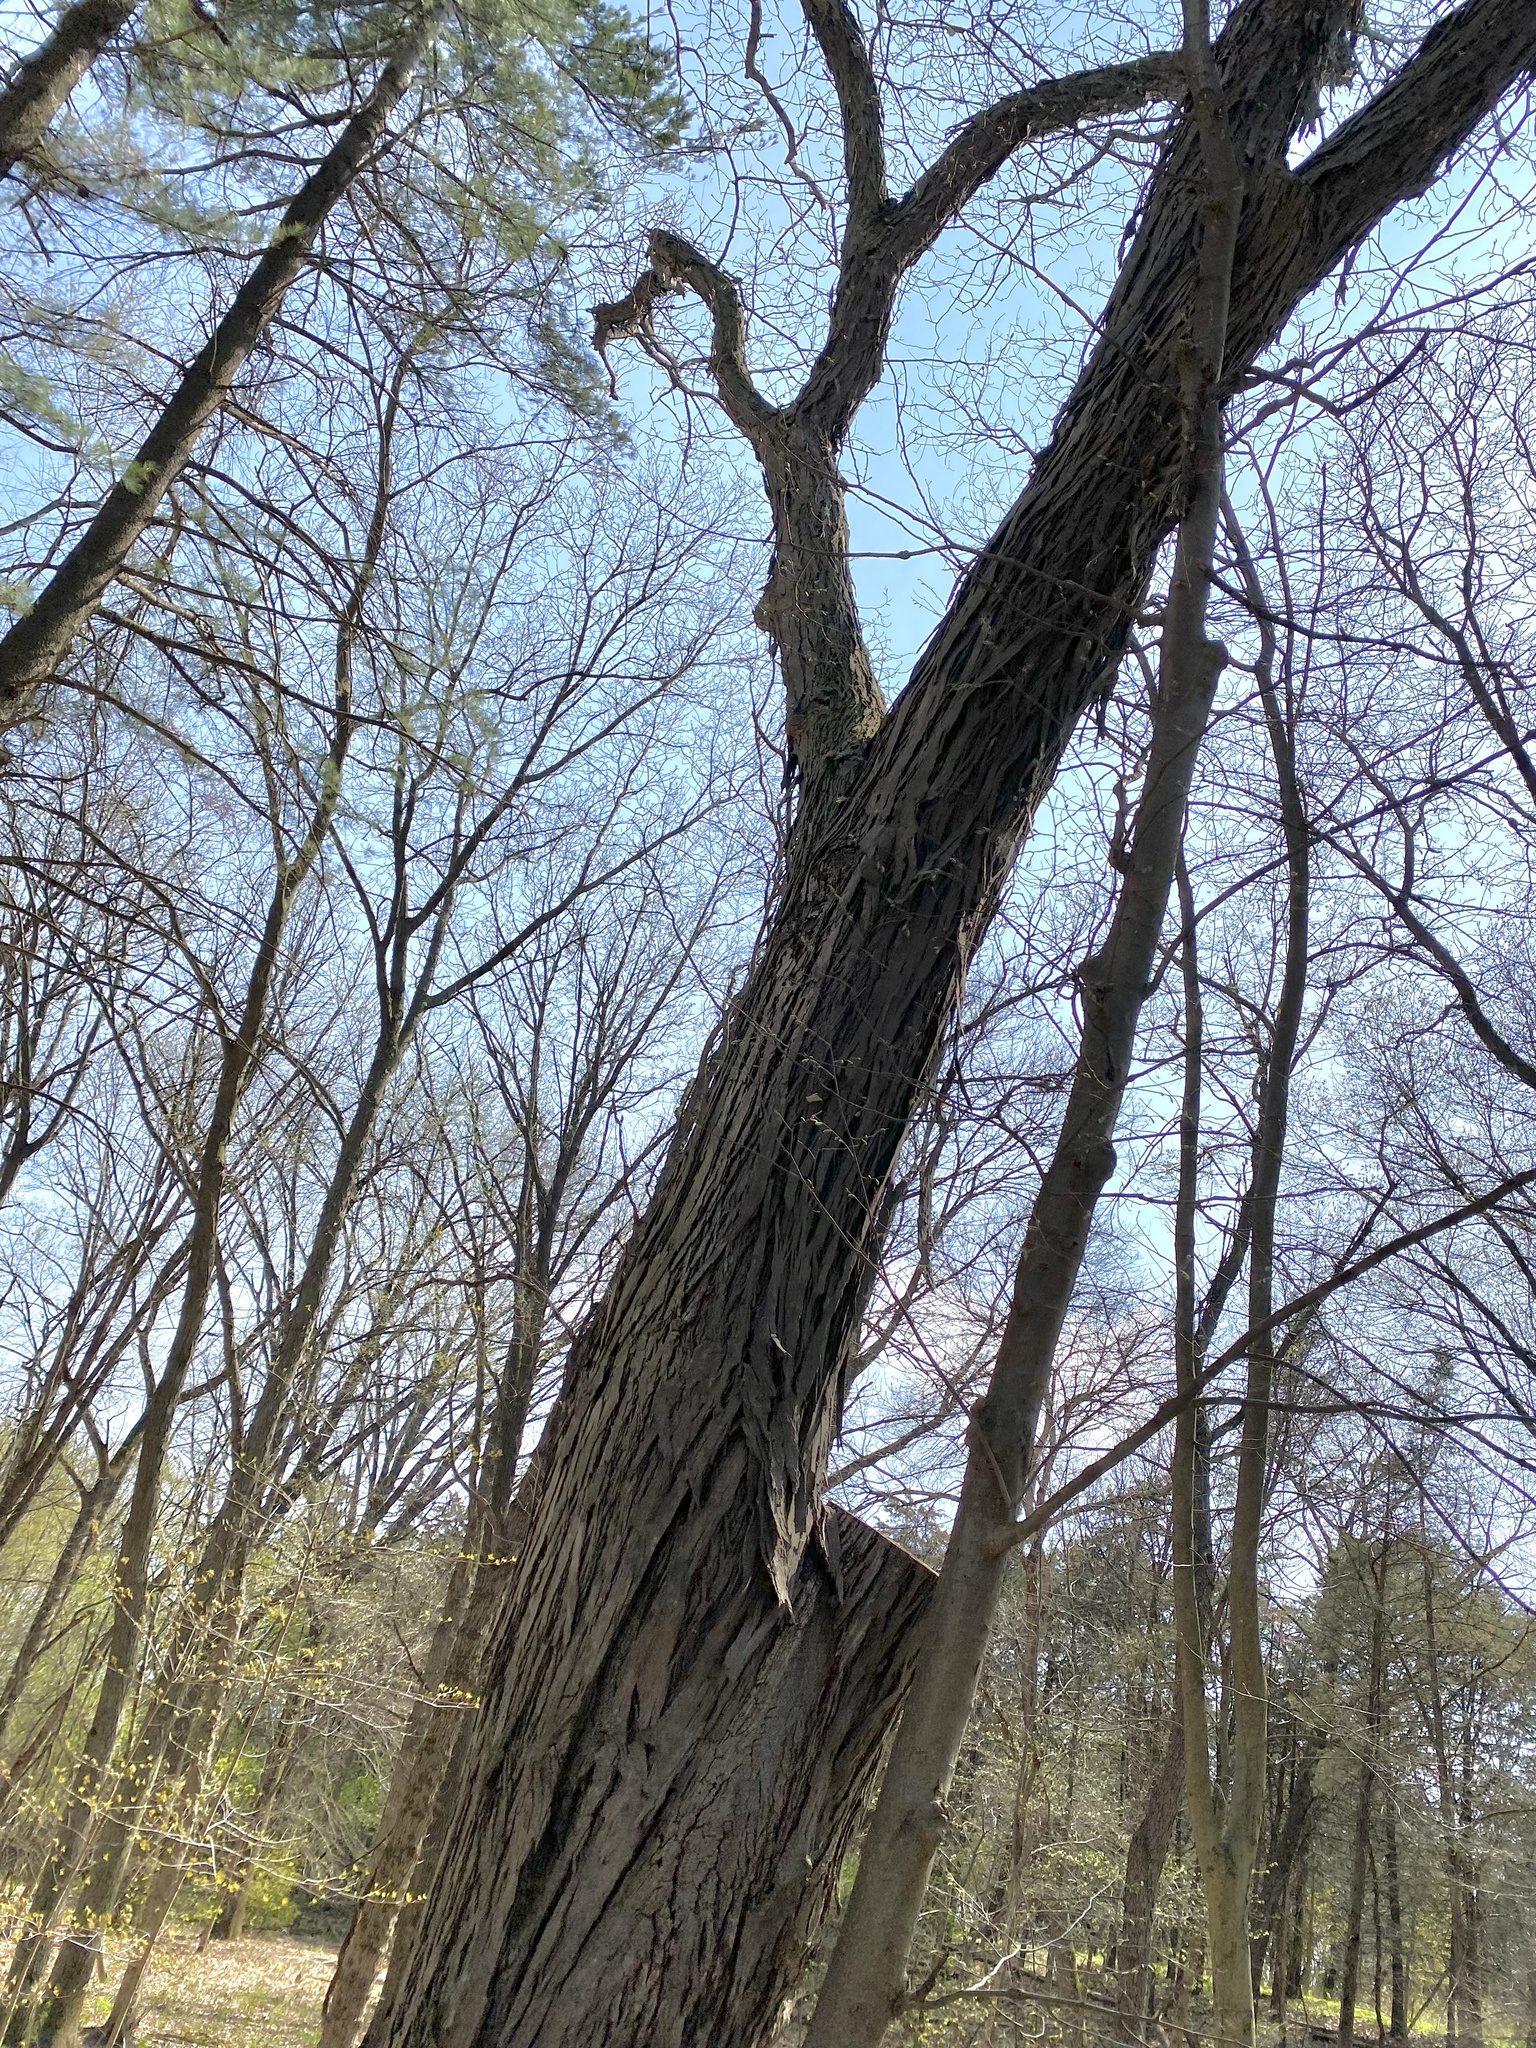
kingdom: Plantae
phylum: Tracheophyta
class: Magnoliopsida
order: Fagales
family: Juglandaceae
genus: Carya
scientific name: Carya ovata
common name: Shagbark hickory
